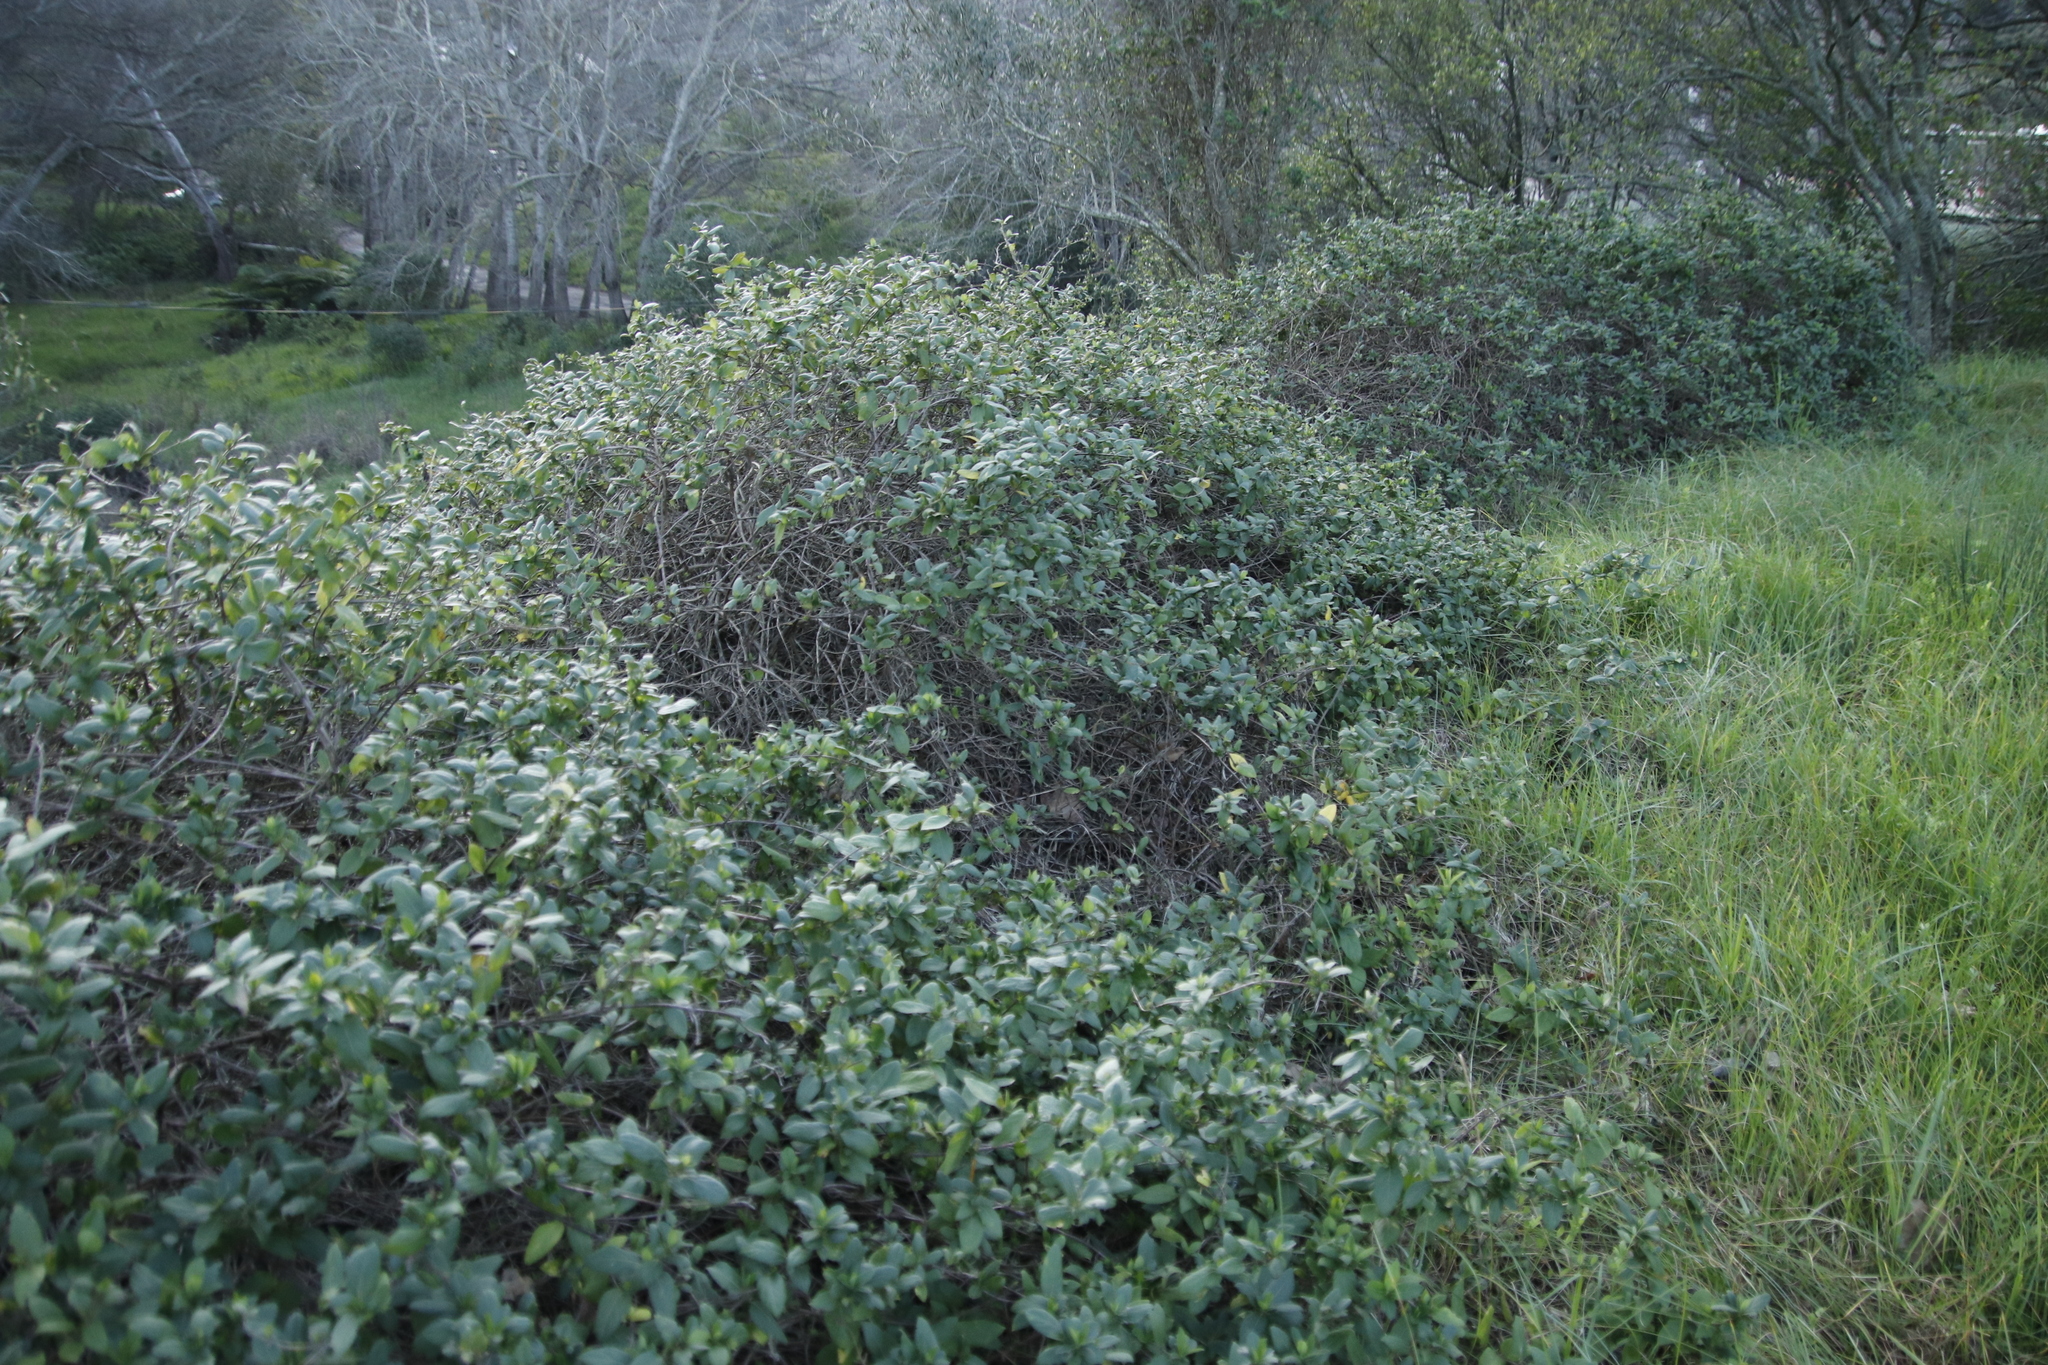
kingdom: Plantae
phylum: Tracheophyta
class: Magnoliopsida
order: Dipsacales
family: Caprifoliaceae
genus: Lonicera
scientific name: Lonicera japonica
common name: Japanese honeysuckle
